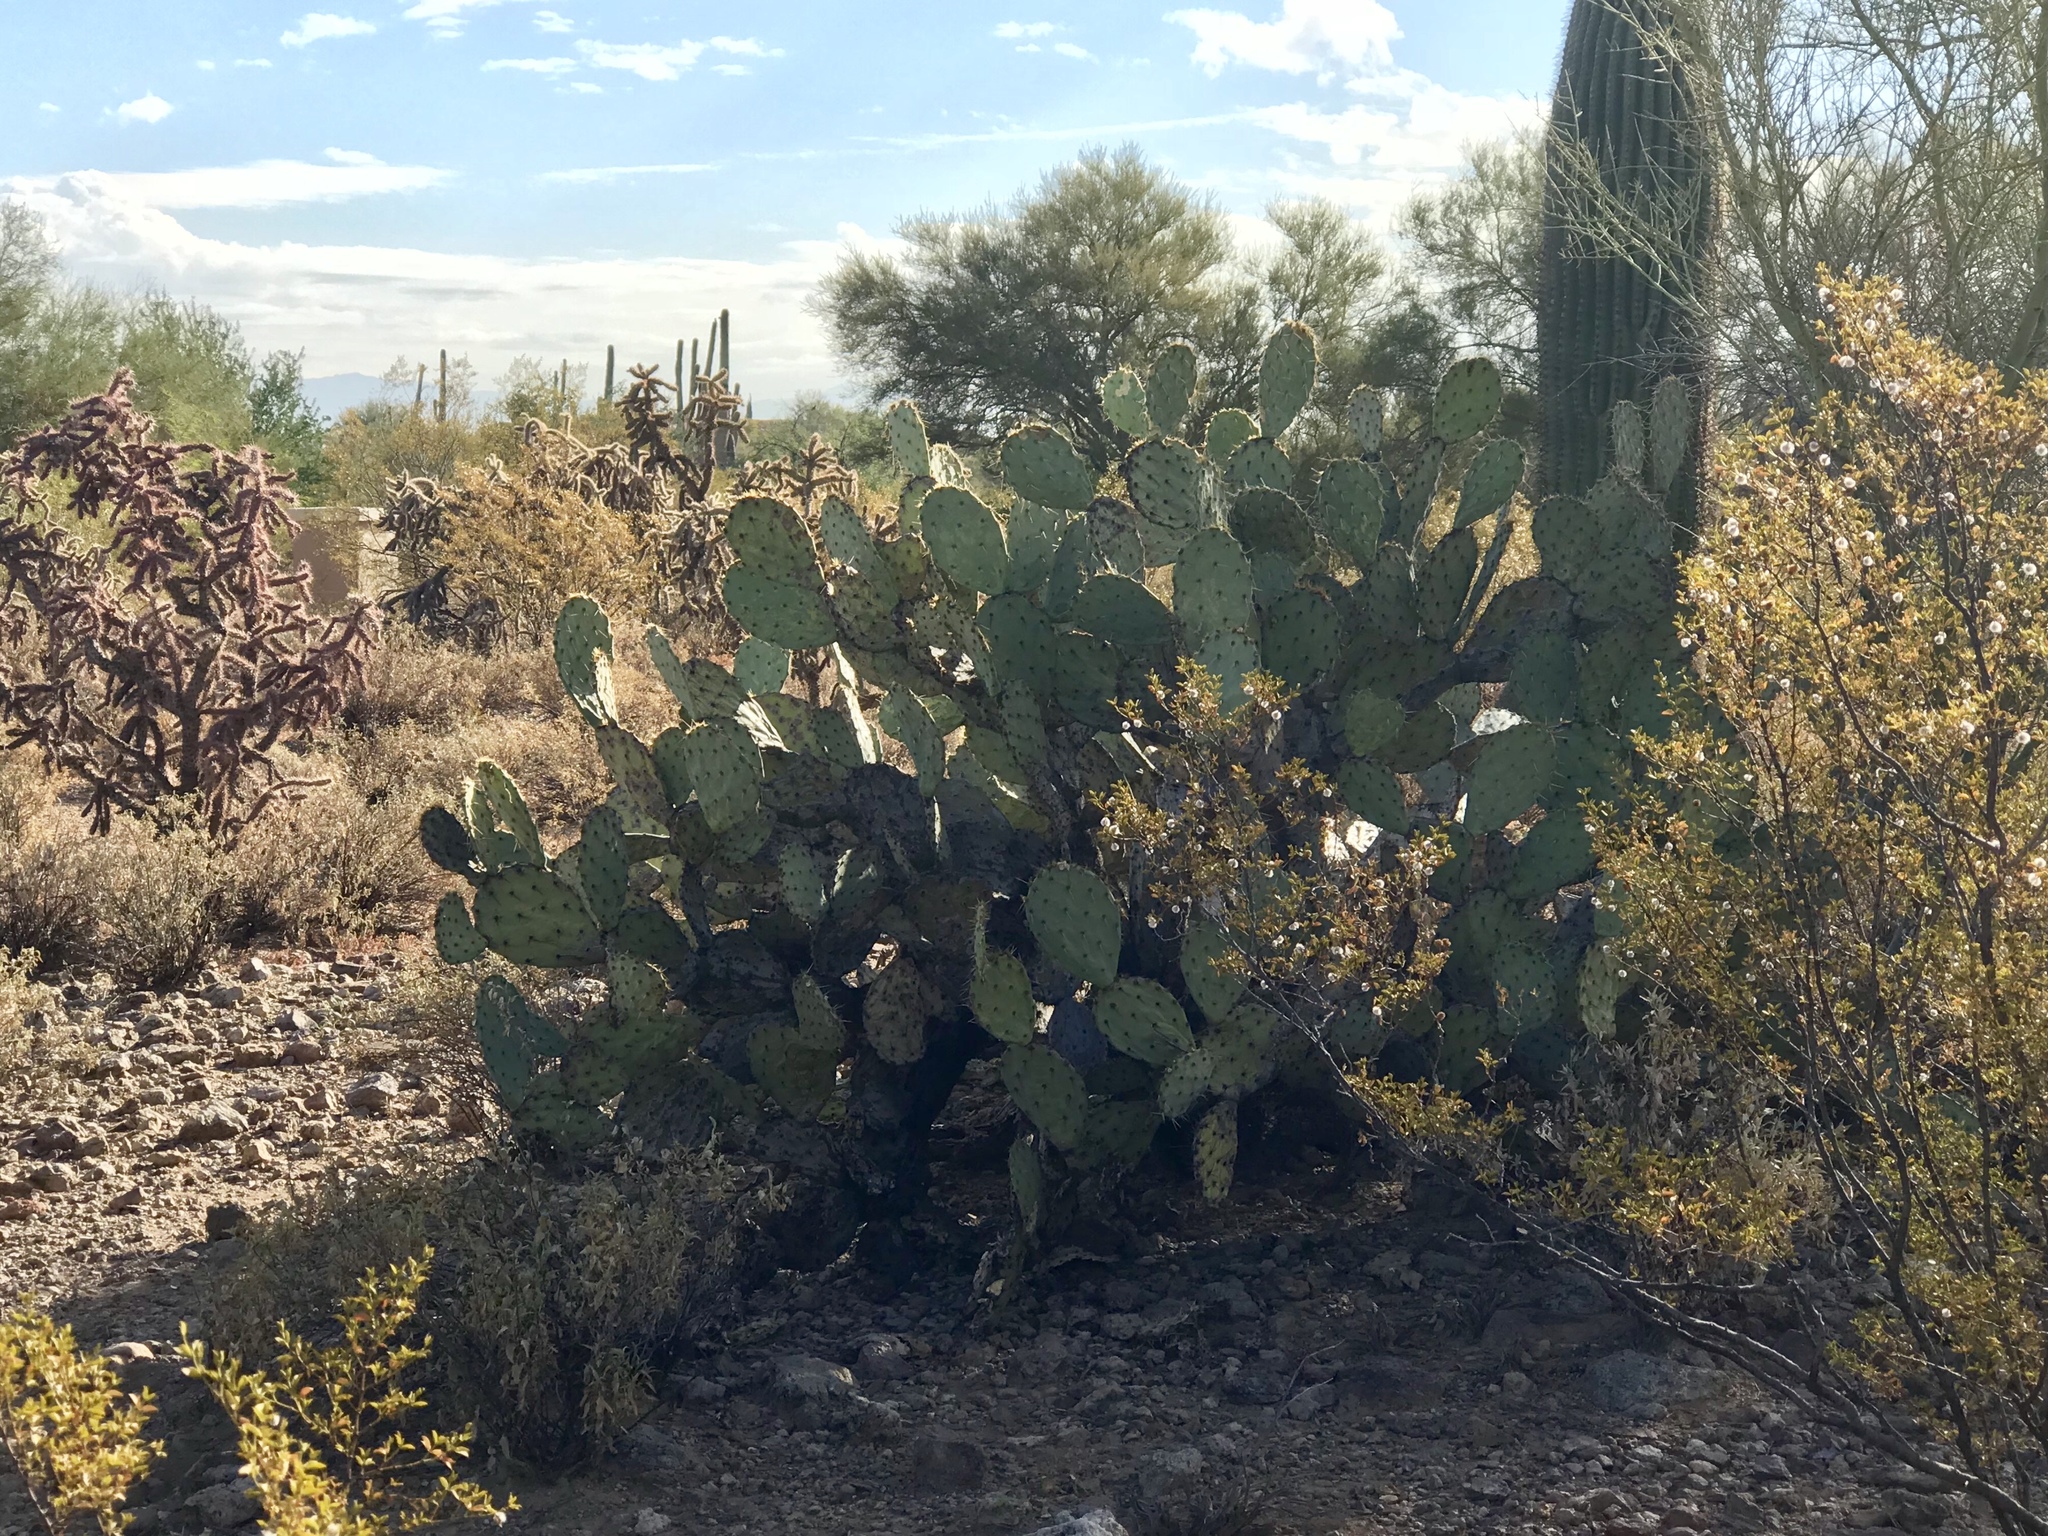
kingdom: Plantae
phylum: Tracheophyta
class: Magnoliopsida
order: Caryophyllales
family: Cactaceae
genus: Opuntia
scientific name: Opuntia engelmannii
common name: Cactus-apple
